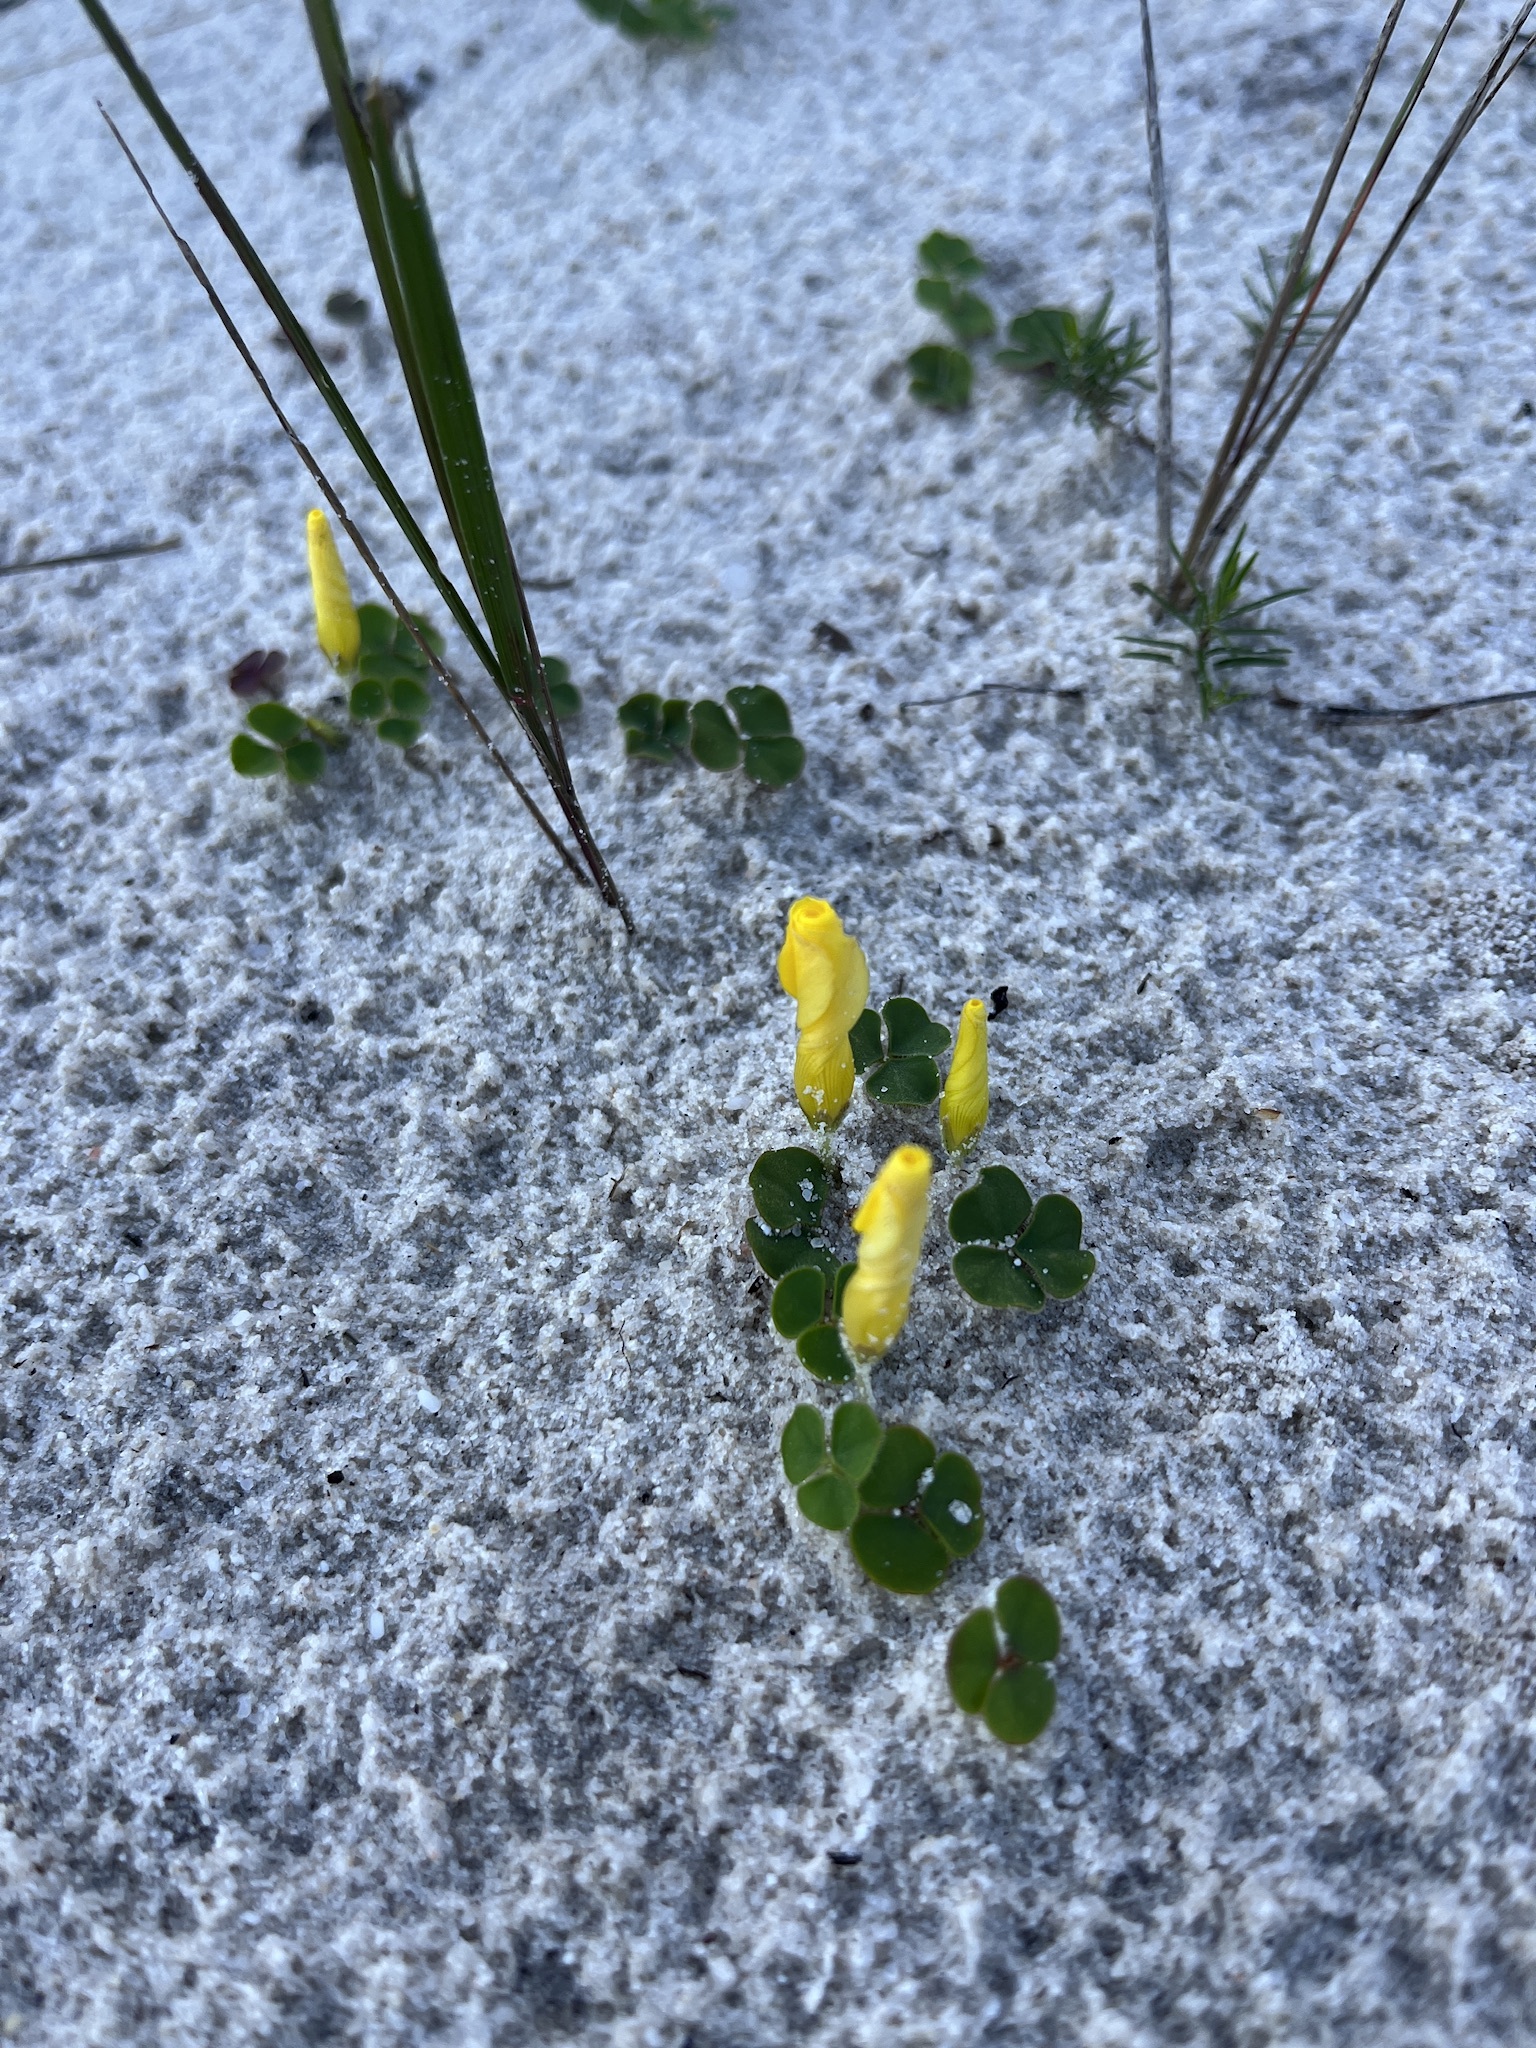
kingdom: Plantae
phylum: Tracheophyta
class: Magnoliopsida
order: Oxalidales
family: Oxalidaceae
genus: Oxalis
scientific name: Oxalis luteola
